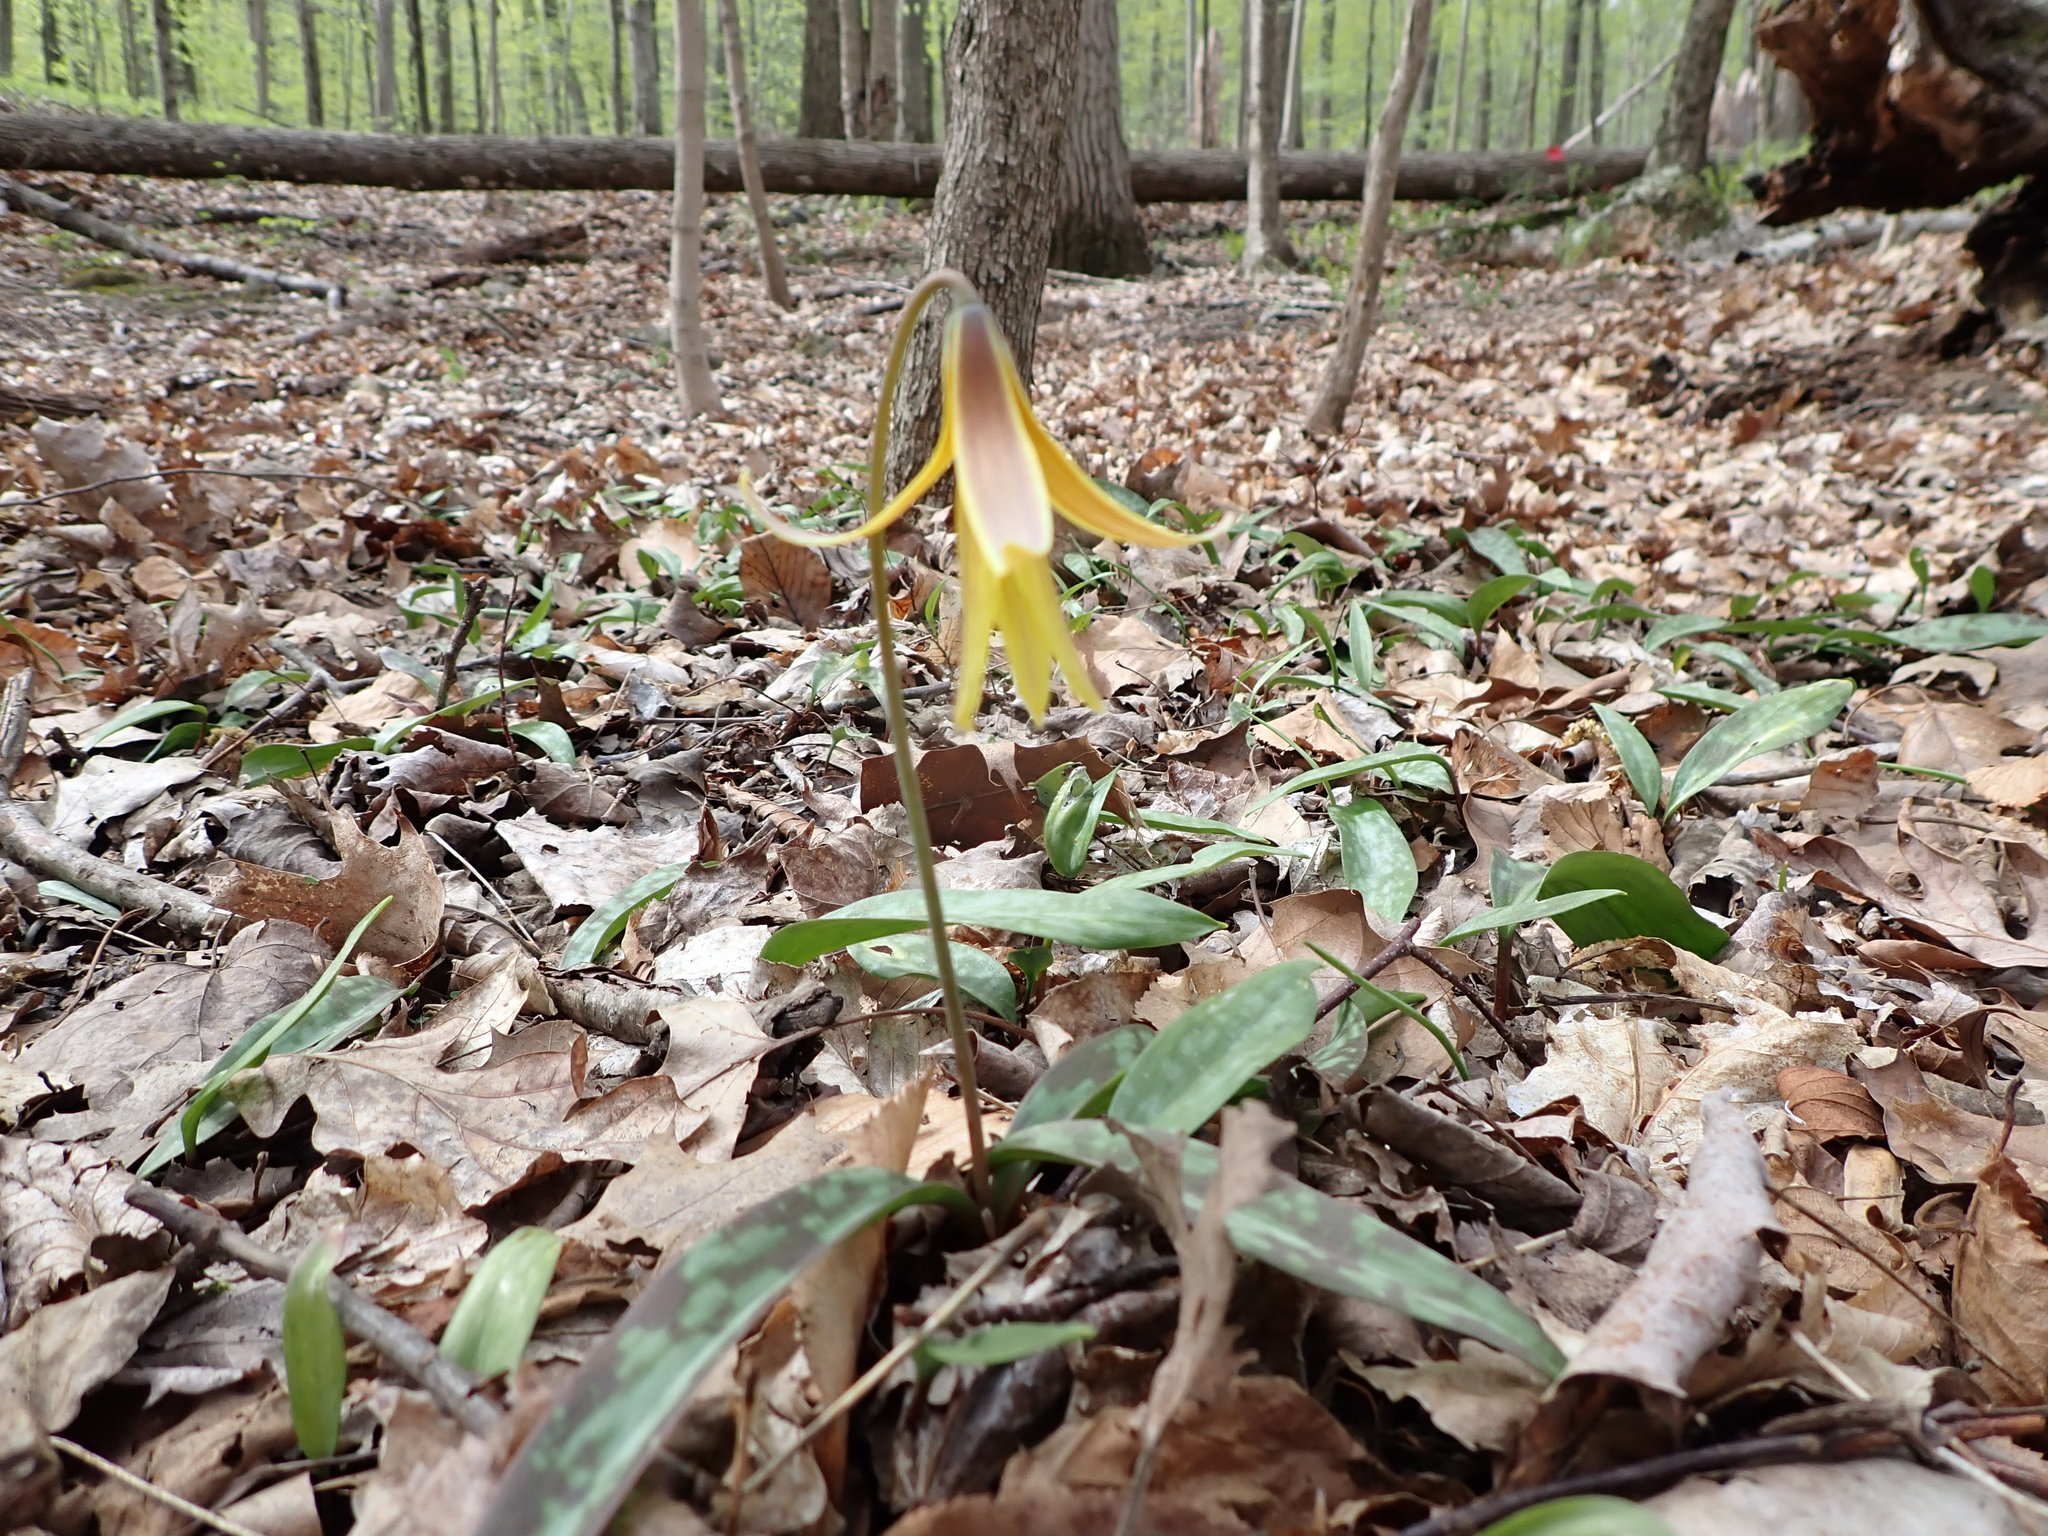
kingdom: Plantae
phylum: Tracheophyta
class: Liliopsida
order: Liliales
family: Liliaceae
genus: Erythronium
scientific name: Erythronium americanum
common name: Yellow adder's-tongue
